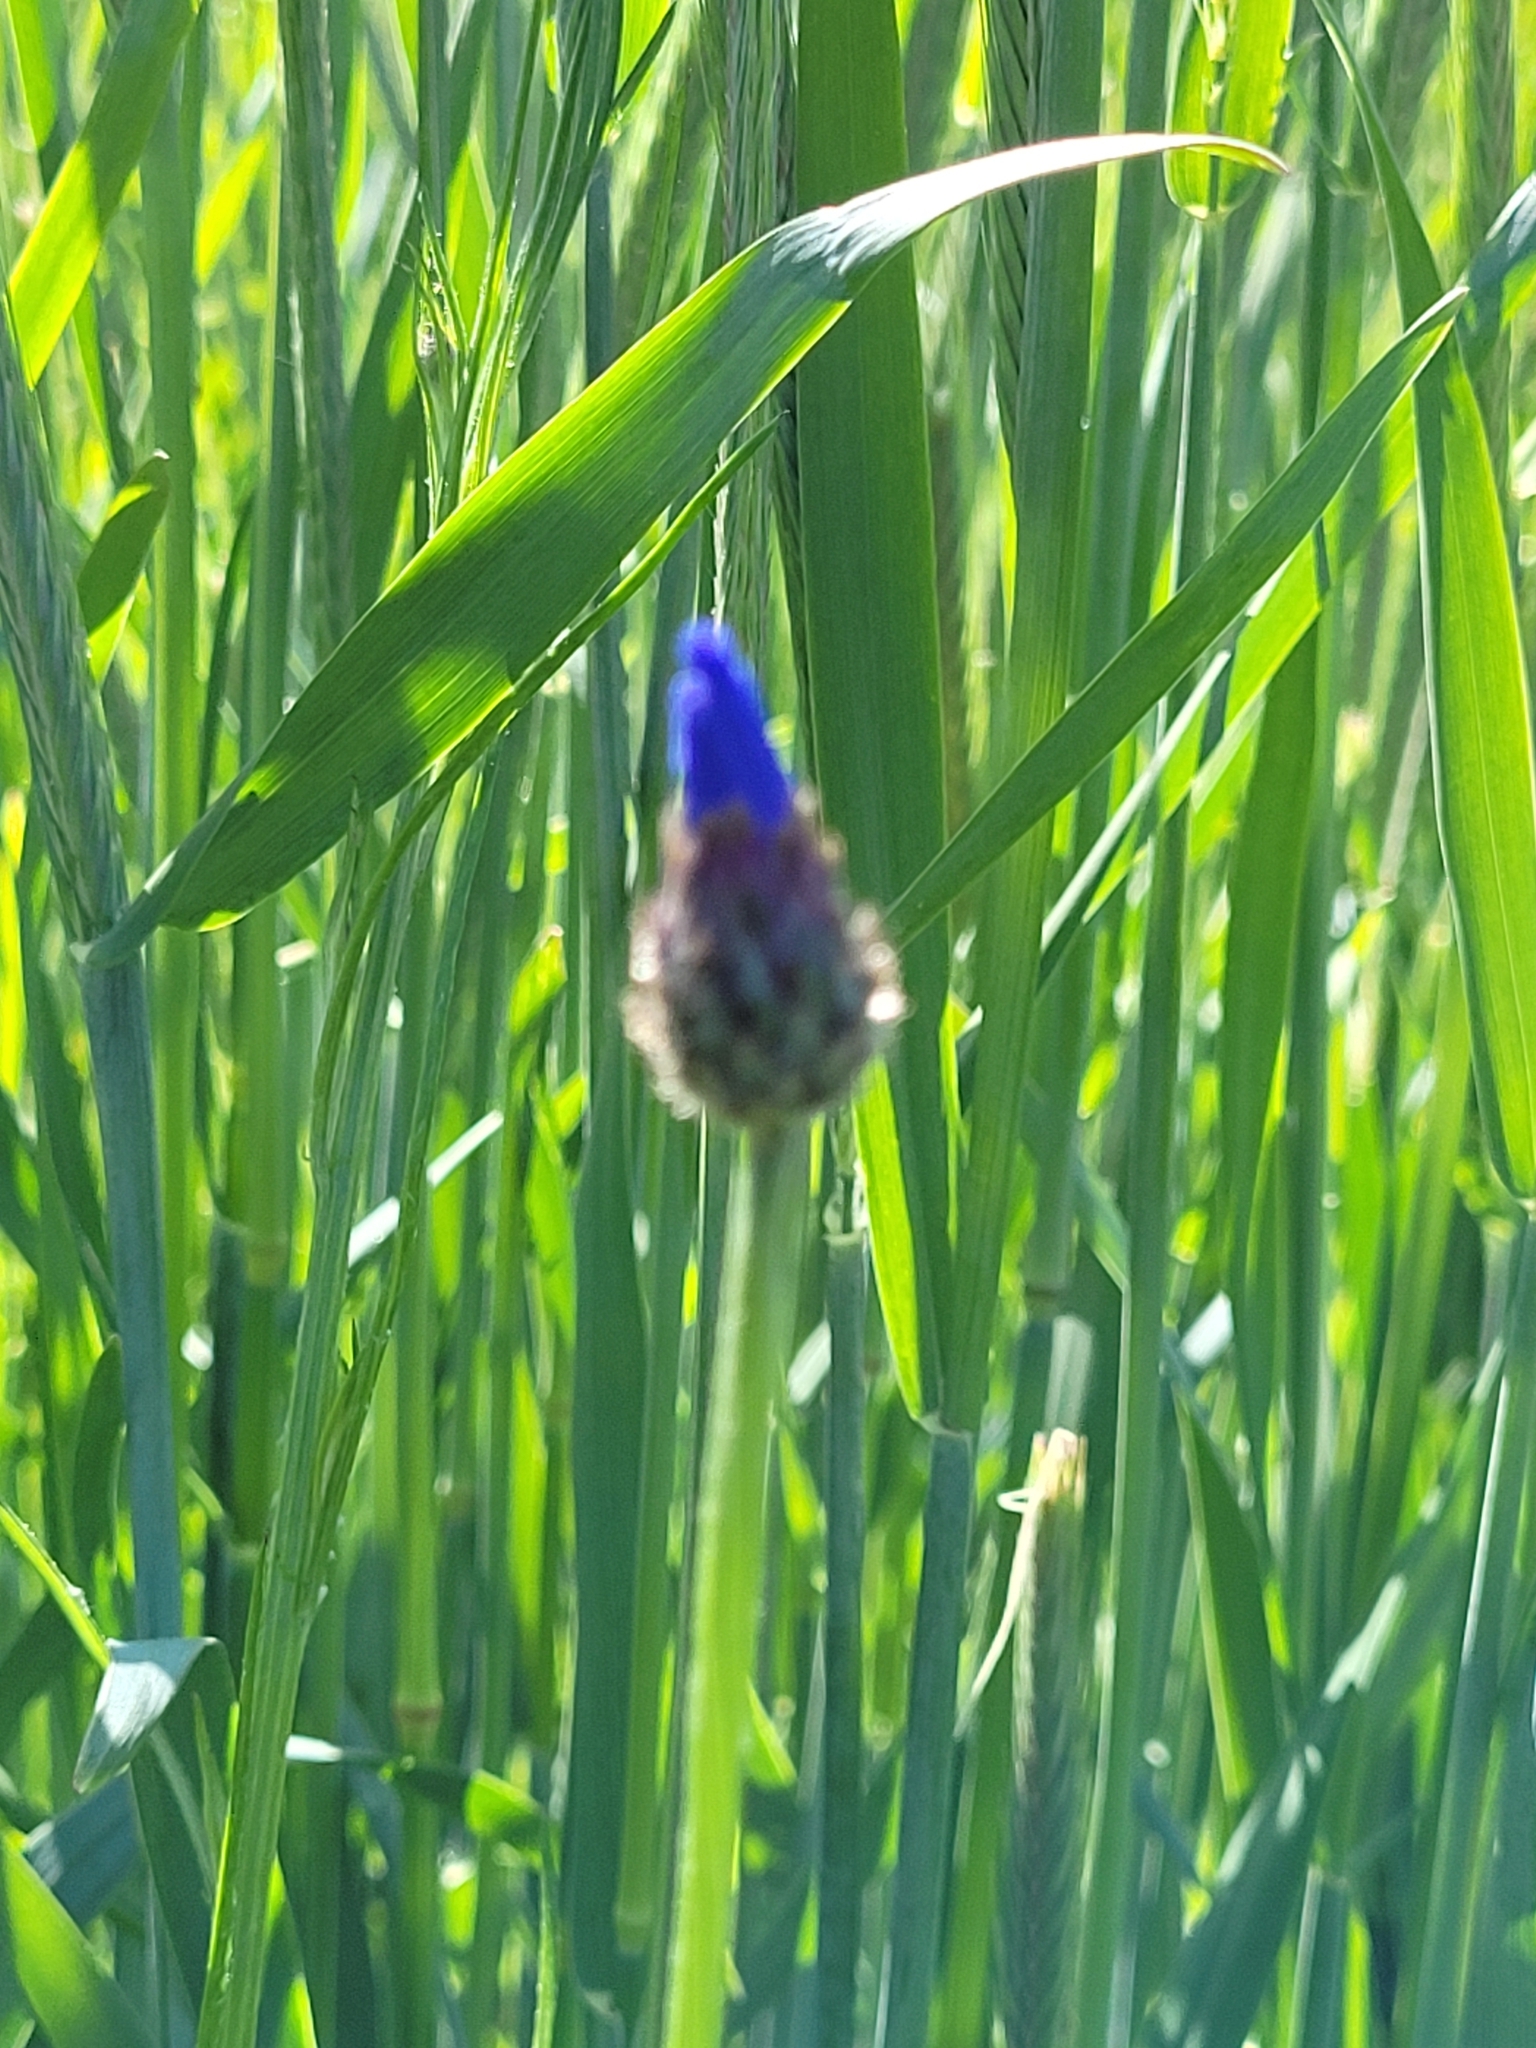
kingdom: Plantae
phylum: Tracheophyta
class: Magnoliopsida
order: Asterales
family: Asteraceae
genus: Centaurea
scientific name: Centaurea cyanus
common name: Cornflower
